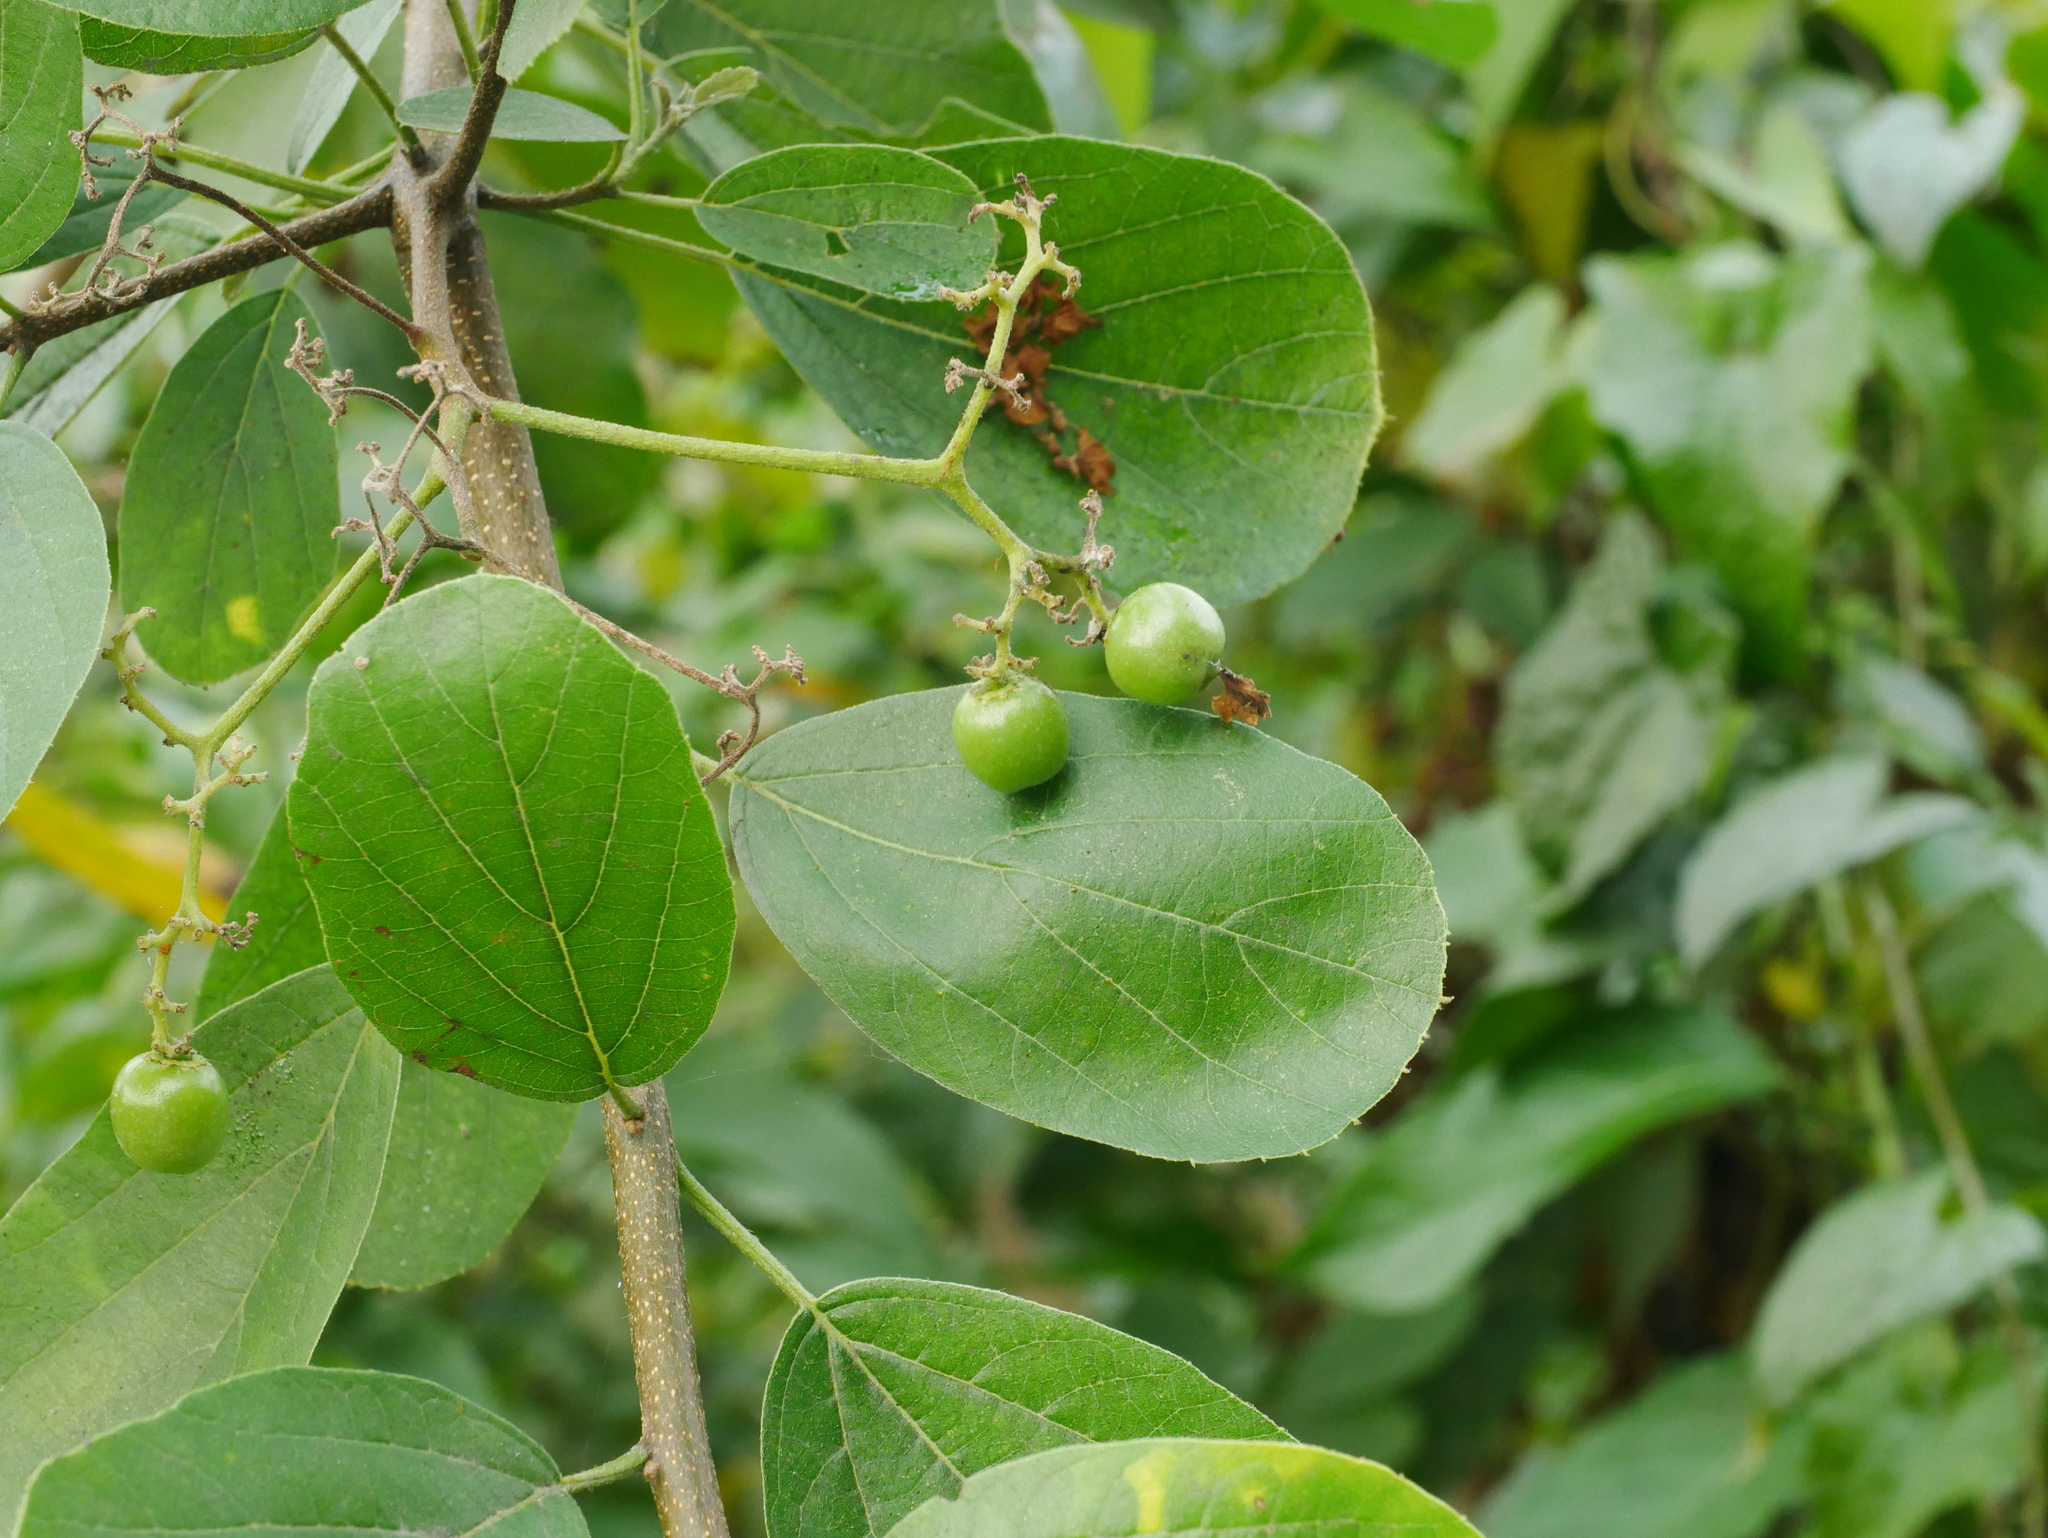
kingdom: Plantae
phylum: Tracheophyta
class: Magnoliopsida
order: Boraginales
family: Cordiaceae
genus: Cordia
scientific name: Cordia dentata
